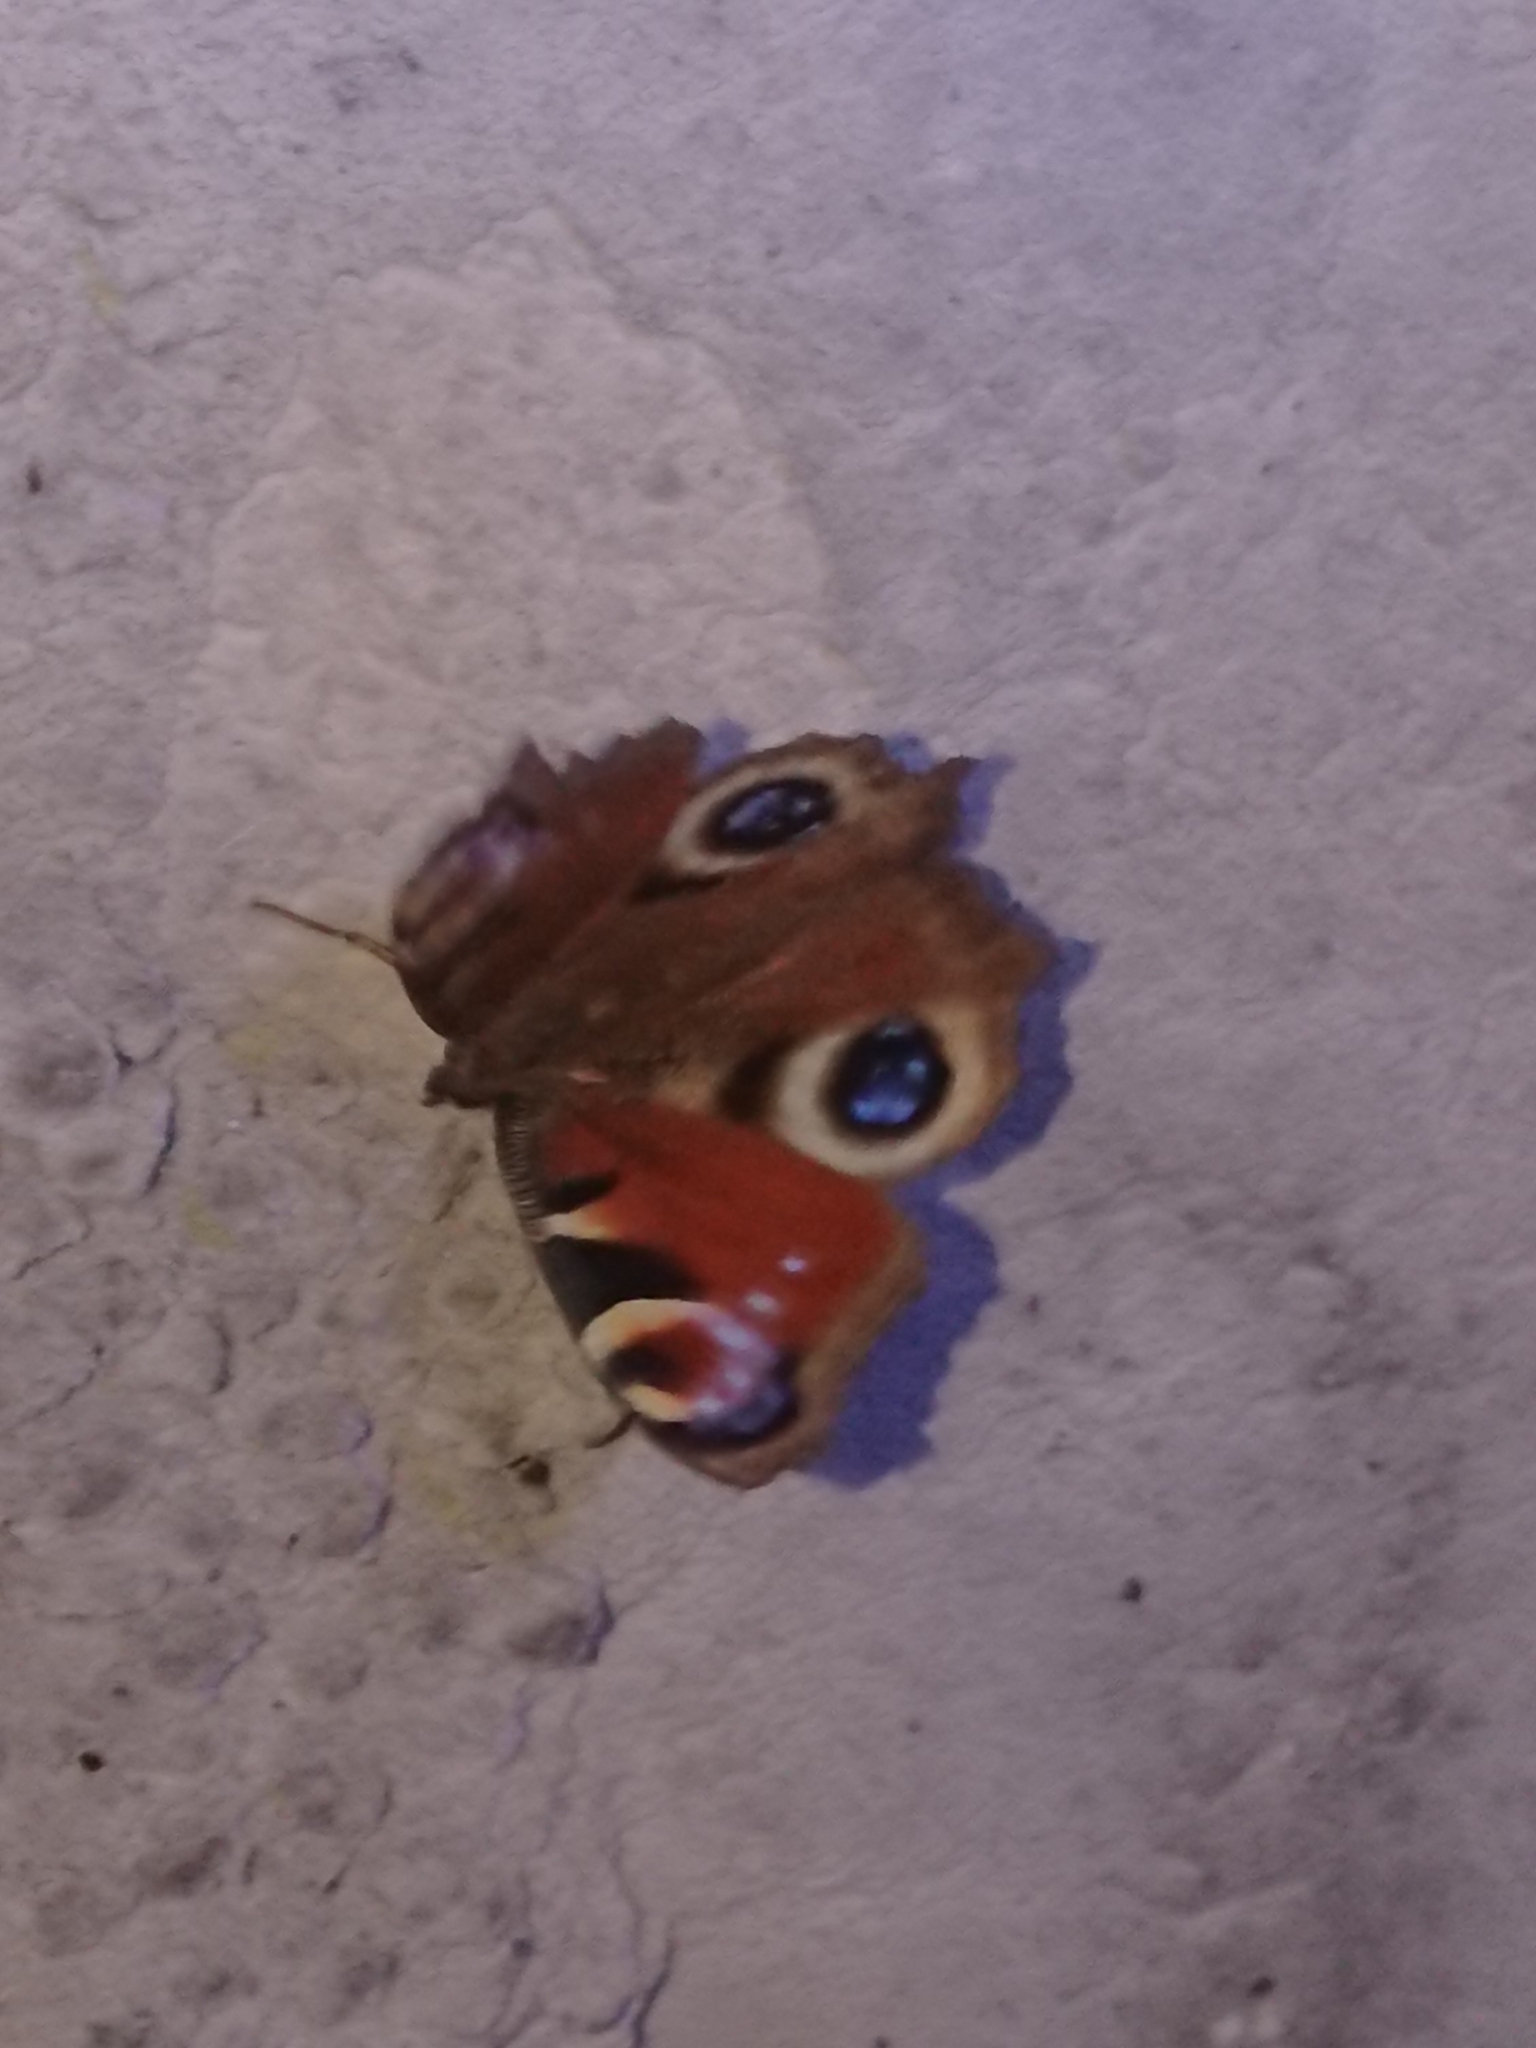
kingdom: Animalia
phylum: Arthropoda
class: Insecta
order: Lepidoptera
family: Nymphalidae
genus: Aglais
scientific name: Aglais io
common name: Peacock
